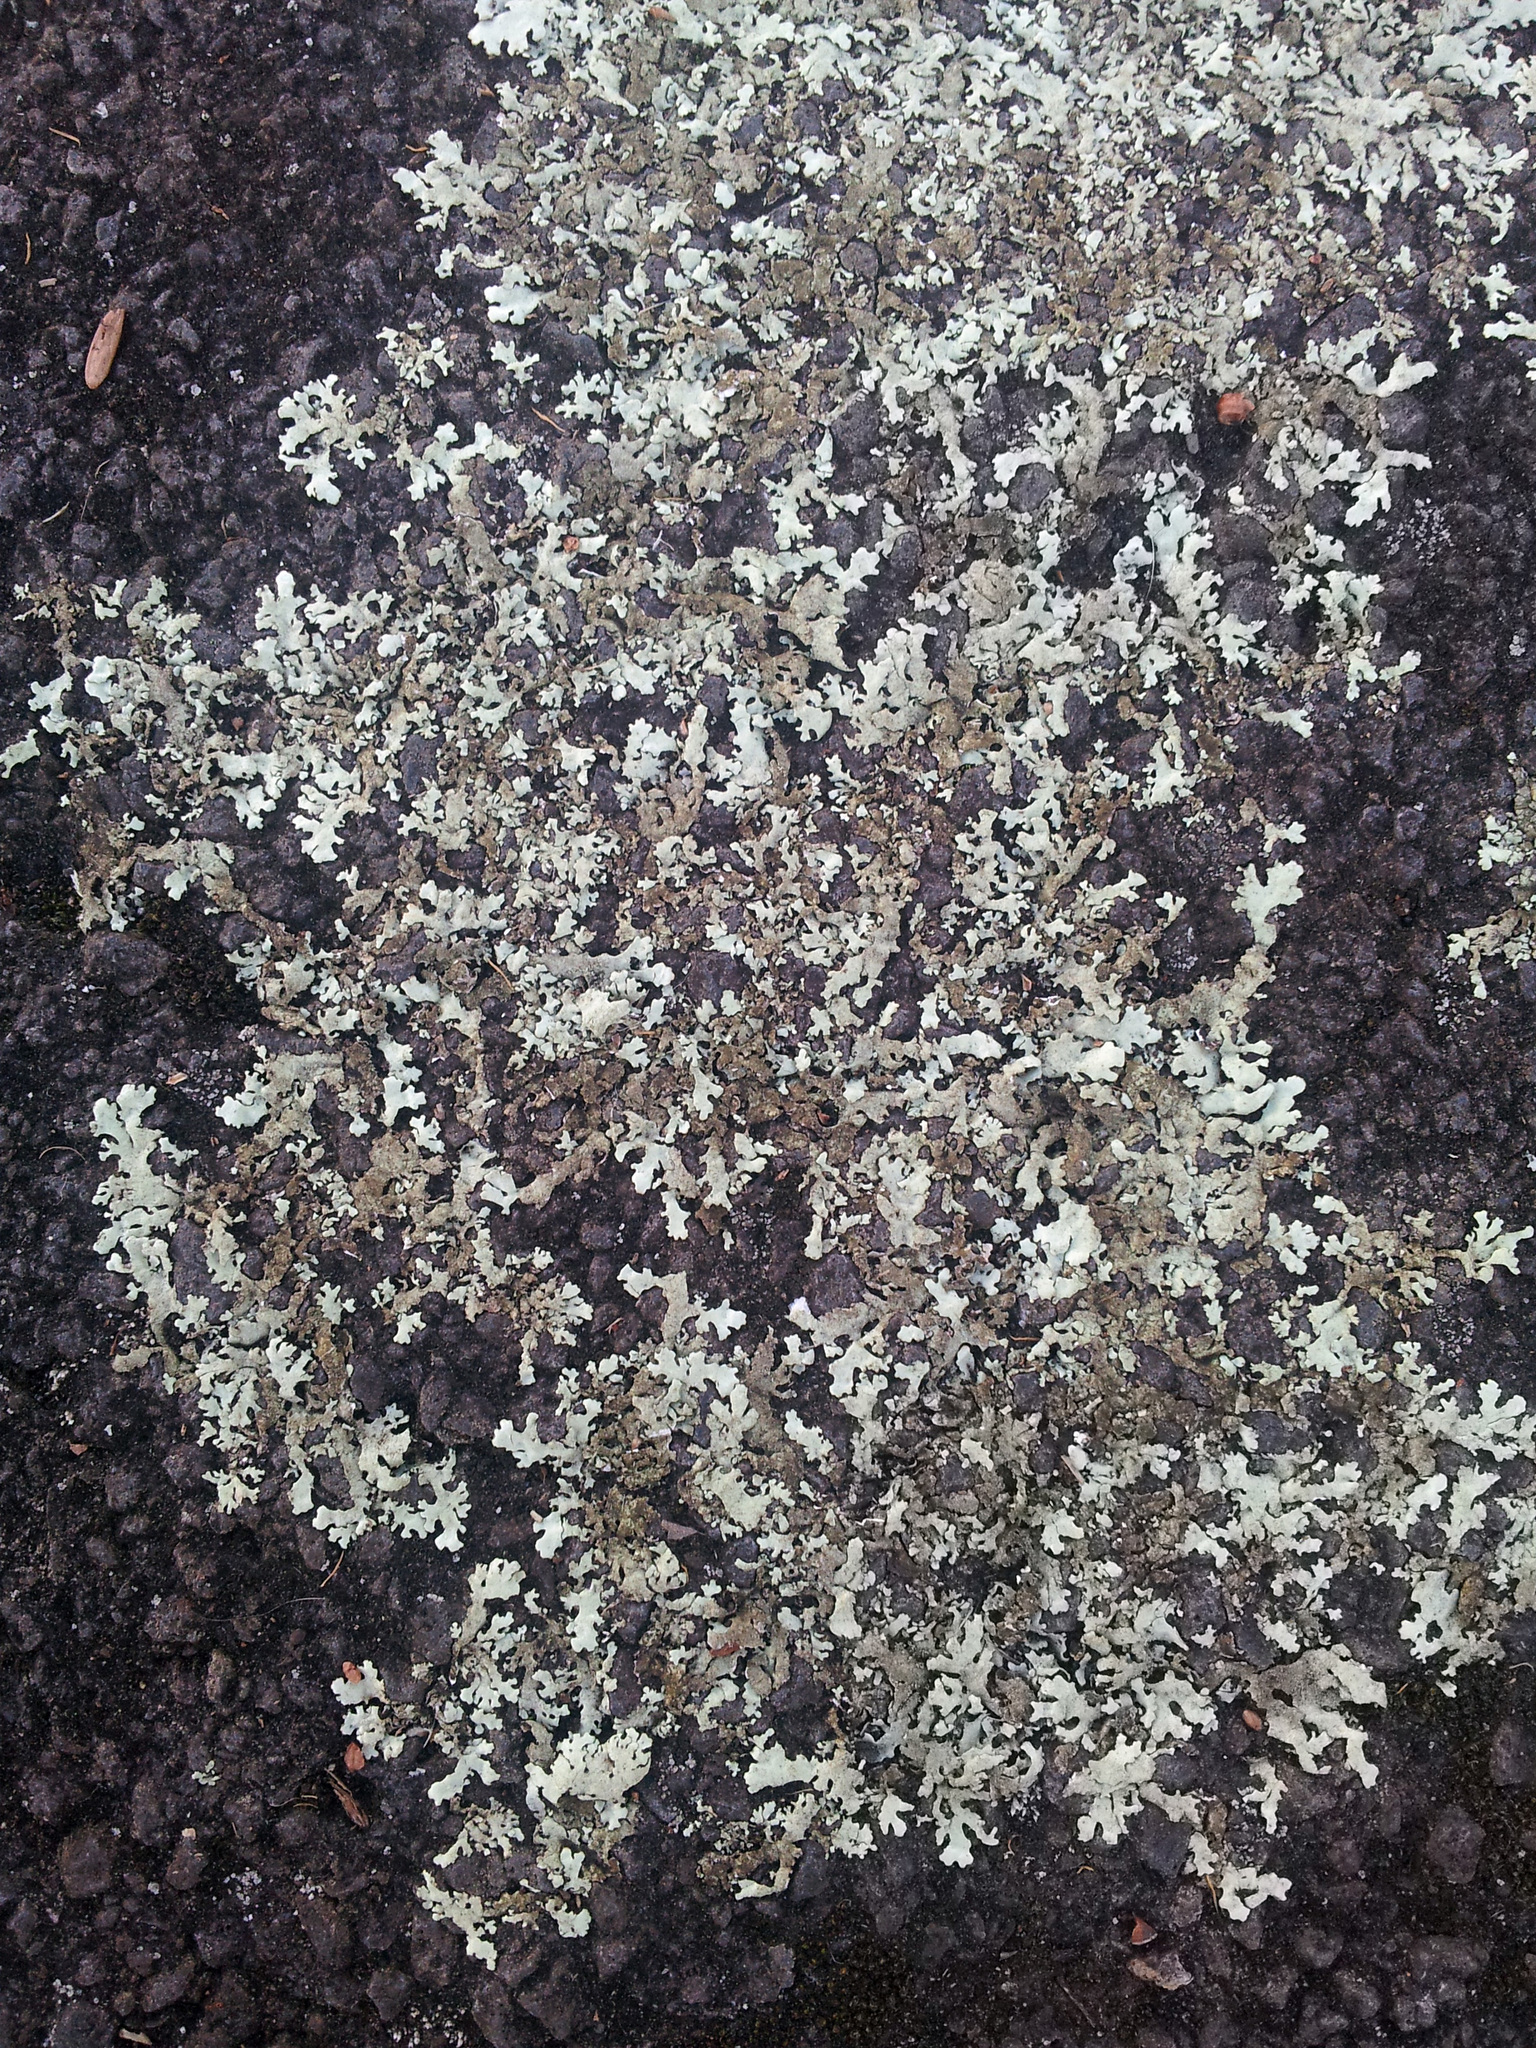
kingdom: Fungi
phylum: Ascomycota
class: Lecanoromycetes
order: Lecanorales
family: Parmeliaceae
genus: Xanthoparmelia
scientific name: Xanthoparmelia scabrosa
